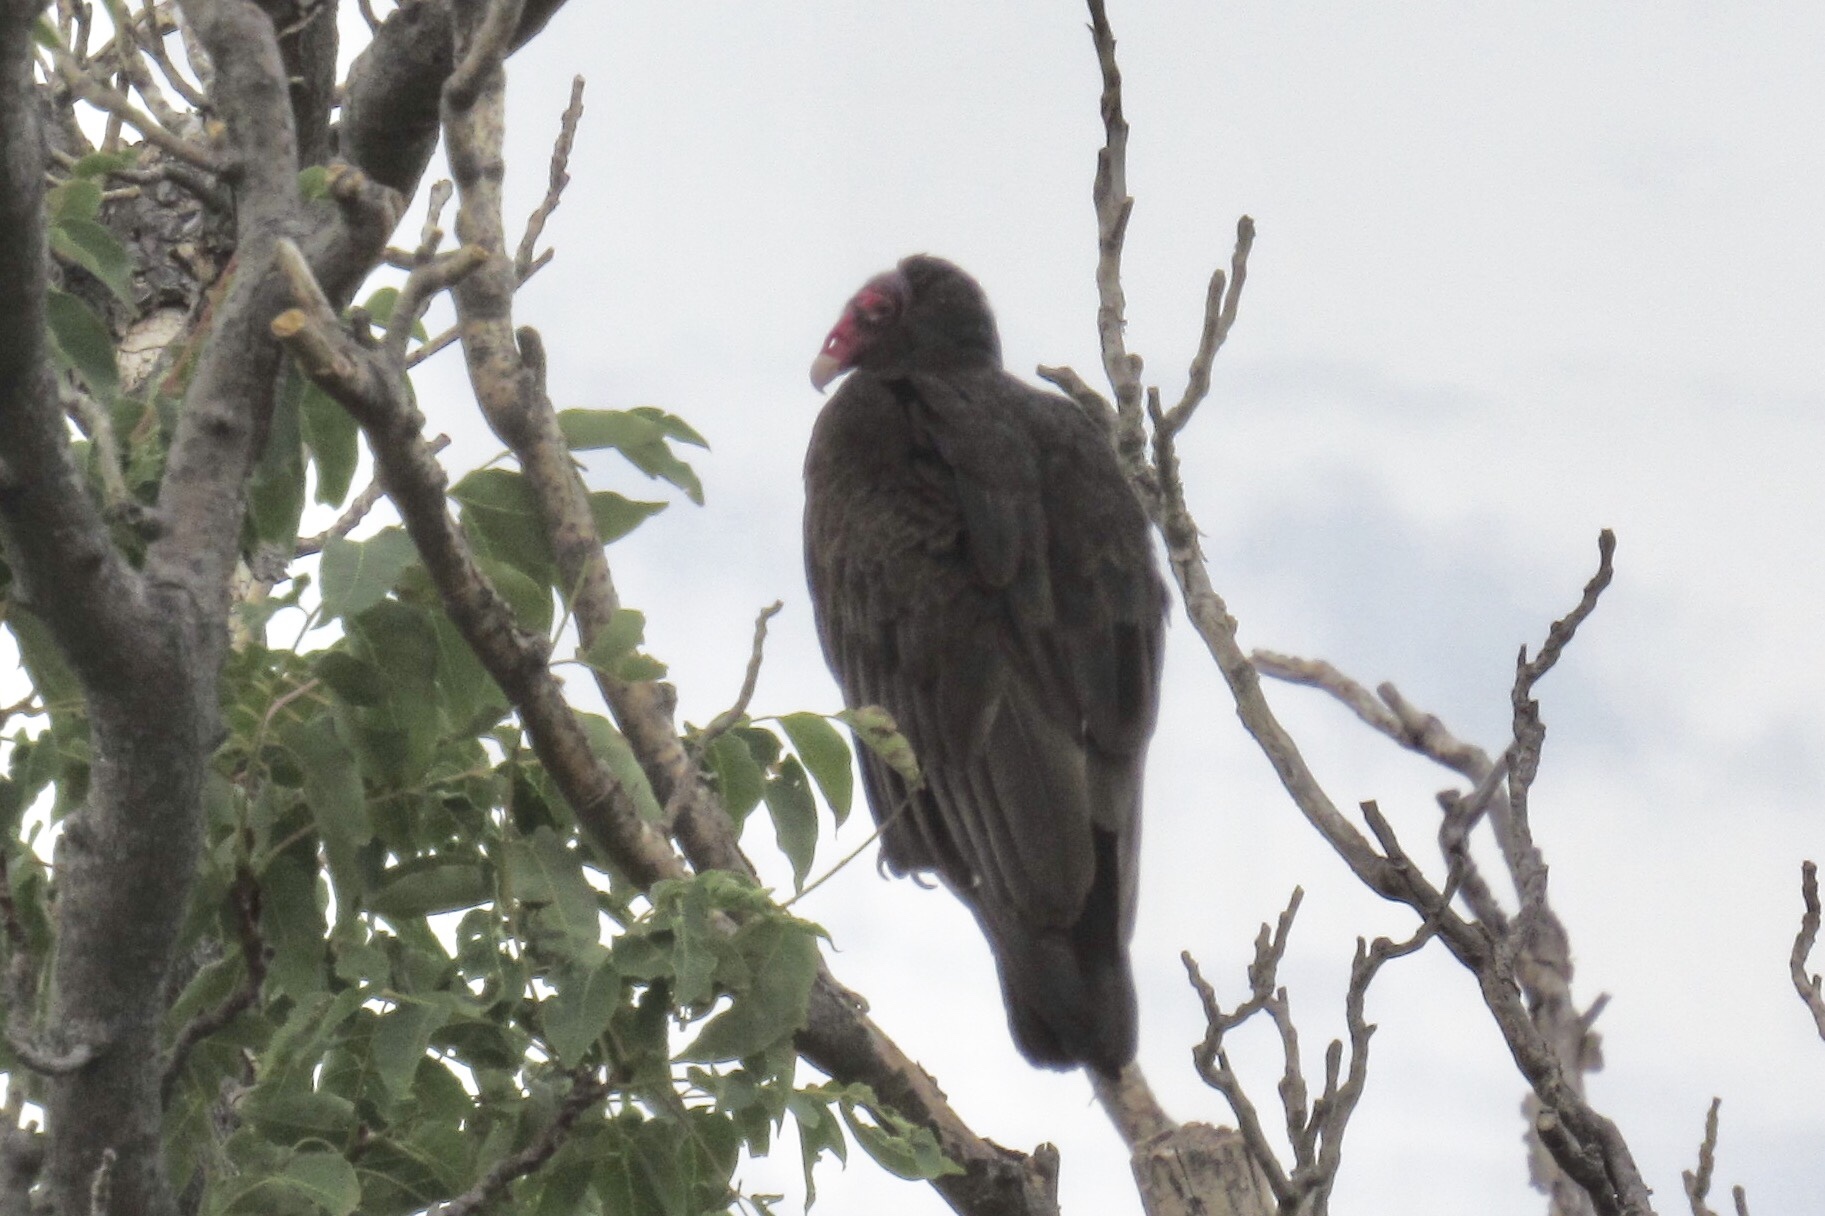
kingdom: Animalia
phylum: Chordata
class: Aves
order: Accipitriformes
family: Cathartidae
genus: Cathartes
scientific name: Cathartes aura
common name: Turkey vulture
